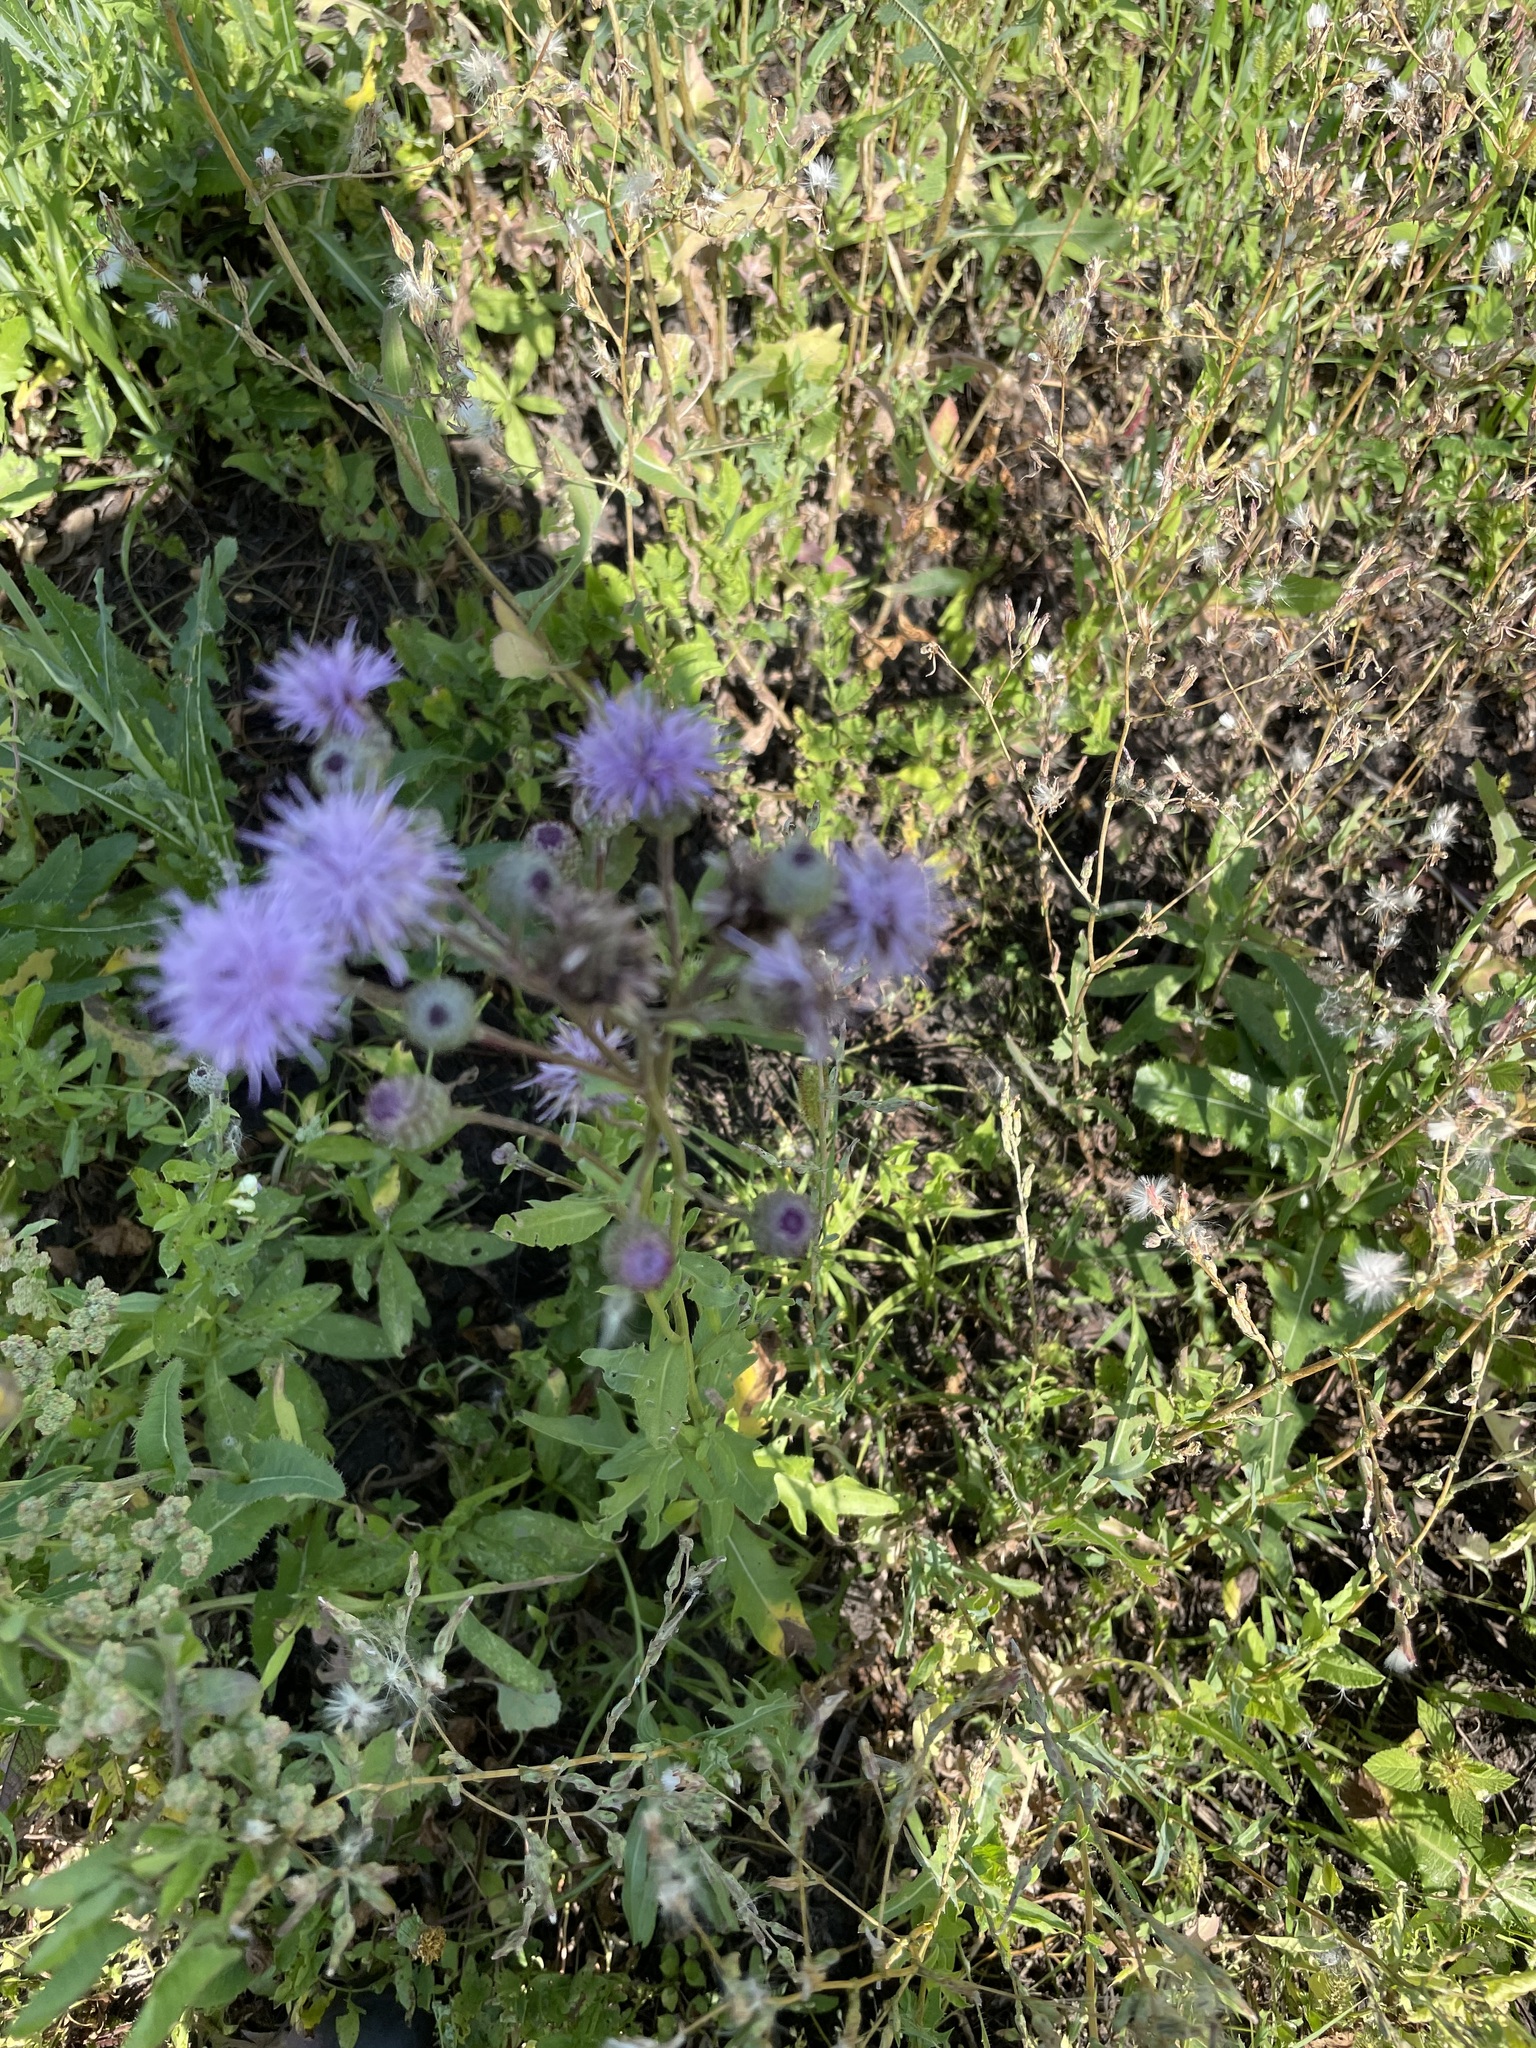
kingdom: Plantae
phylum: Tracheophyta
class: Magnoliopsida
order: Asterales
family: Asteraceae
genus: Cirsium
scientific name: Cirsium arvense
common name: Creeping thistle
